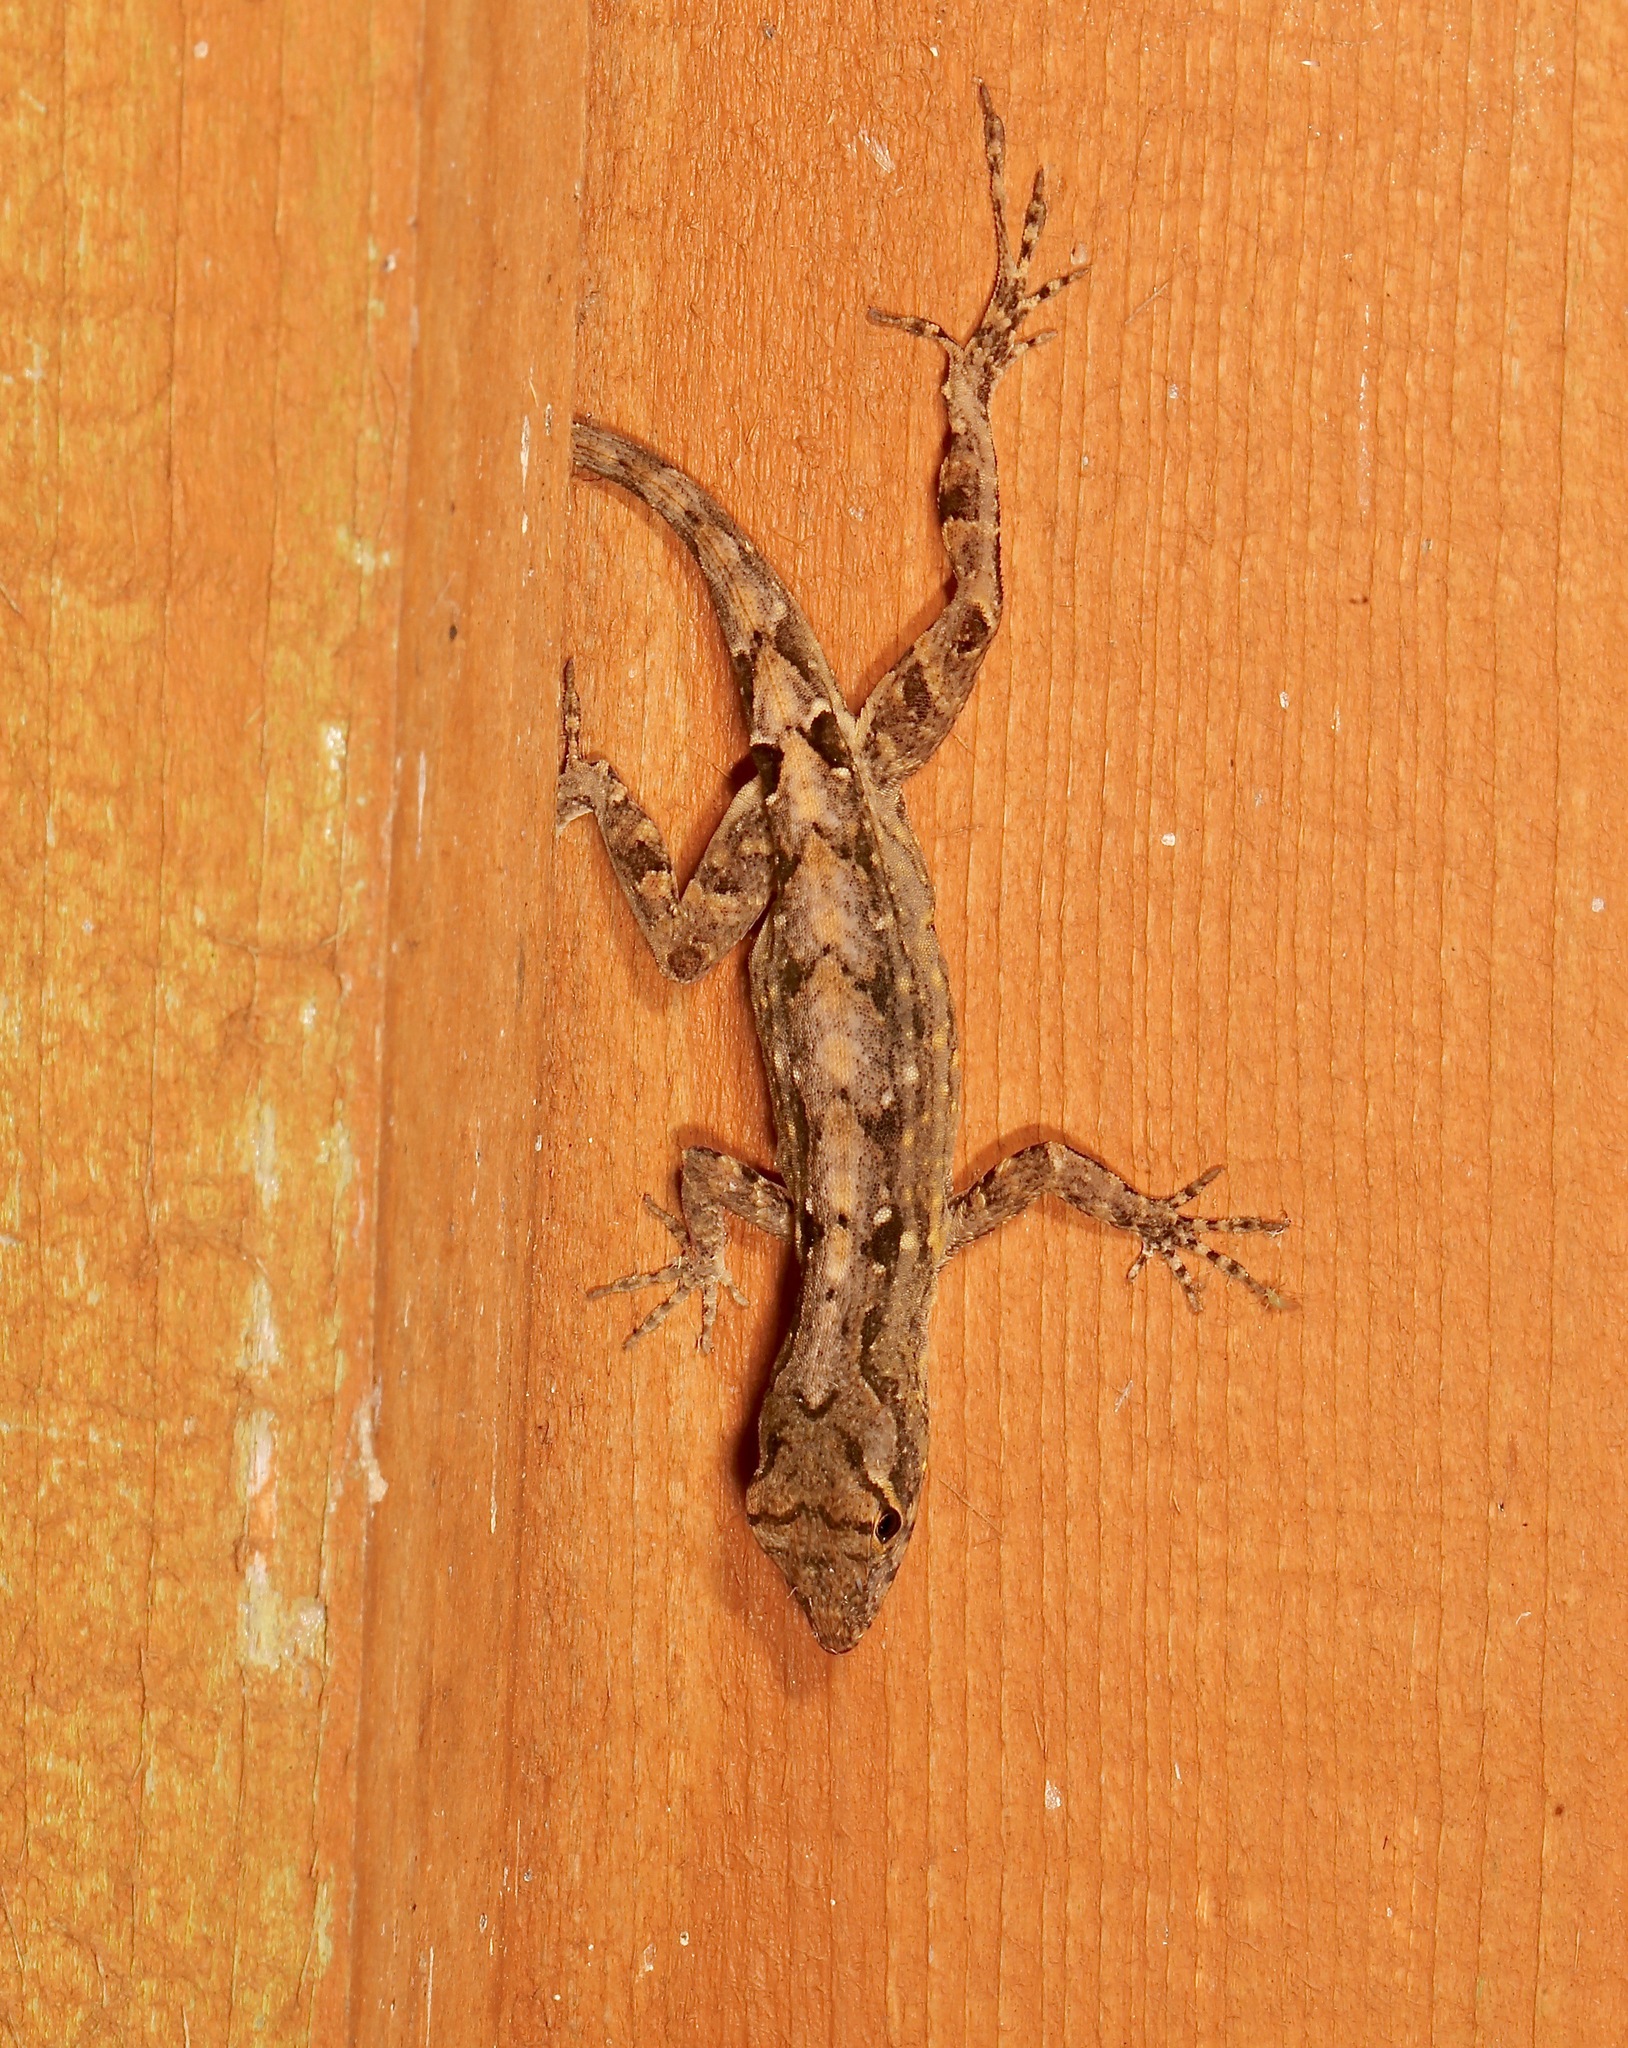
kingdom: Animalia
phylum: Chordata
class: Squamata
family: Dactyloidae
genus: Anolis
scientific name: Anolis sagrei
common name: Brown anole
